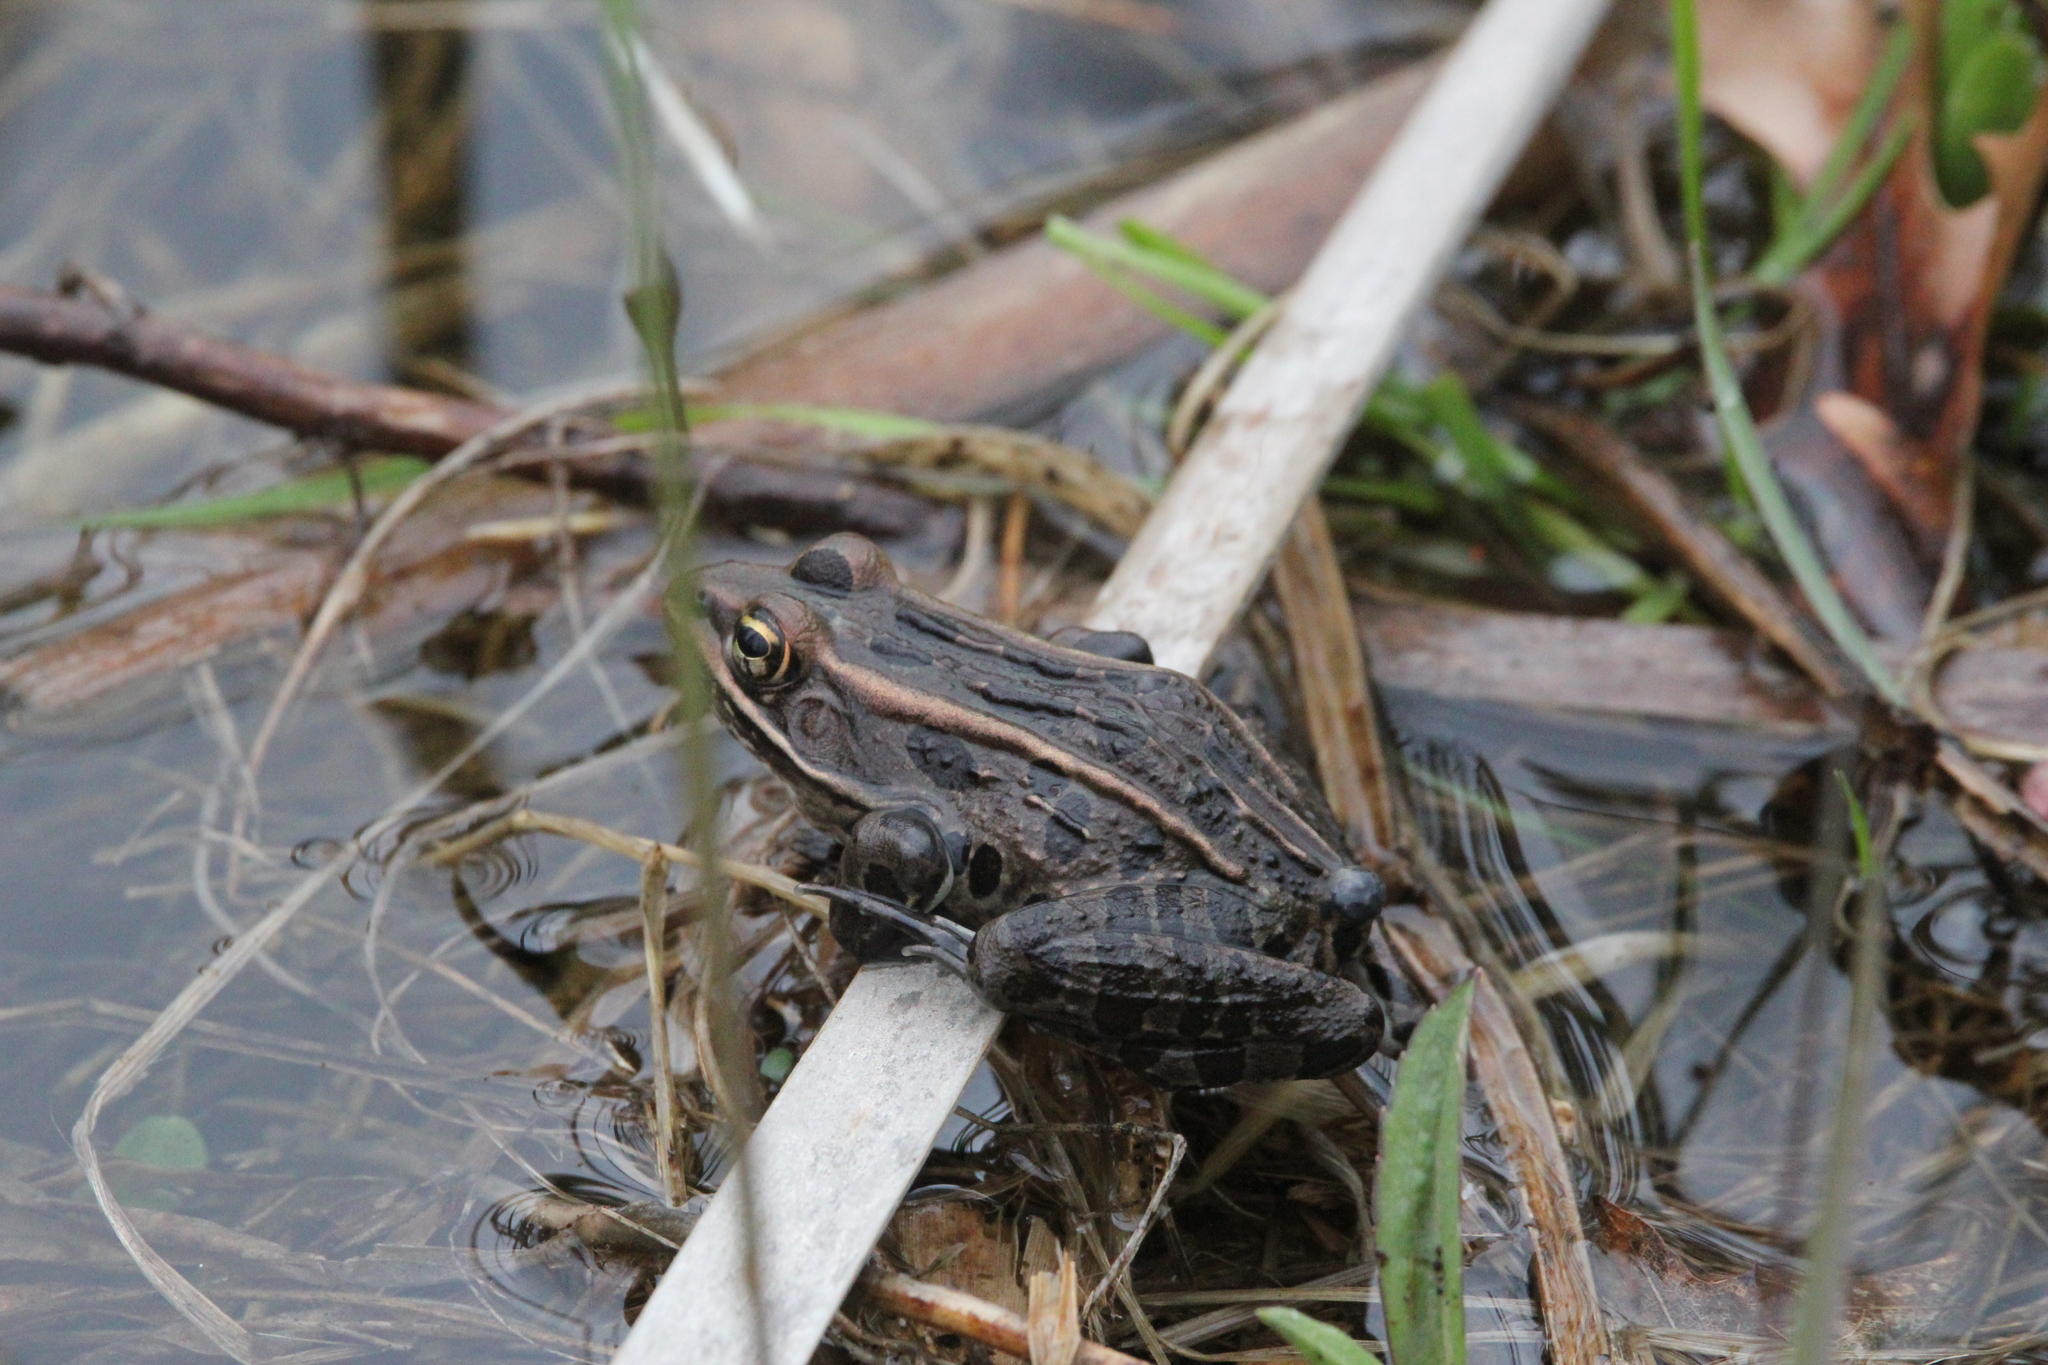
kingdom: Animalia
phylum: Chordata
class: Amphibia
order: Anura
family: Ranidae
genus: Lithobates
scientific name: Lithobates pipiens
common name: Northern leopard frog
